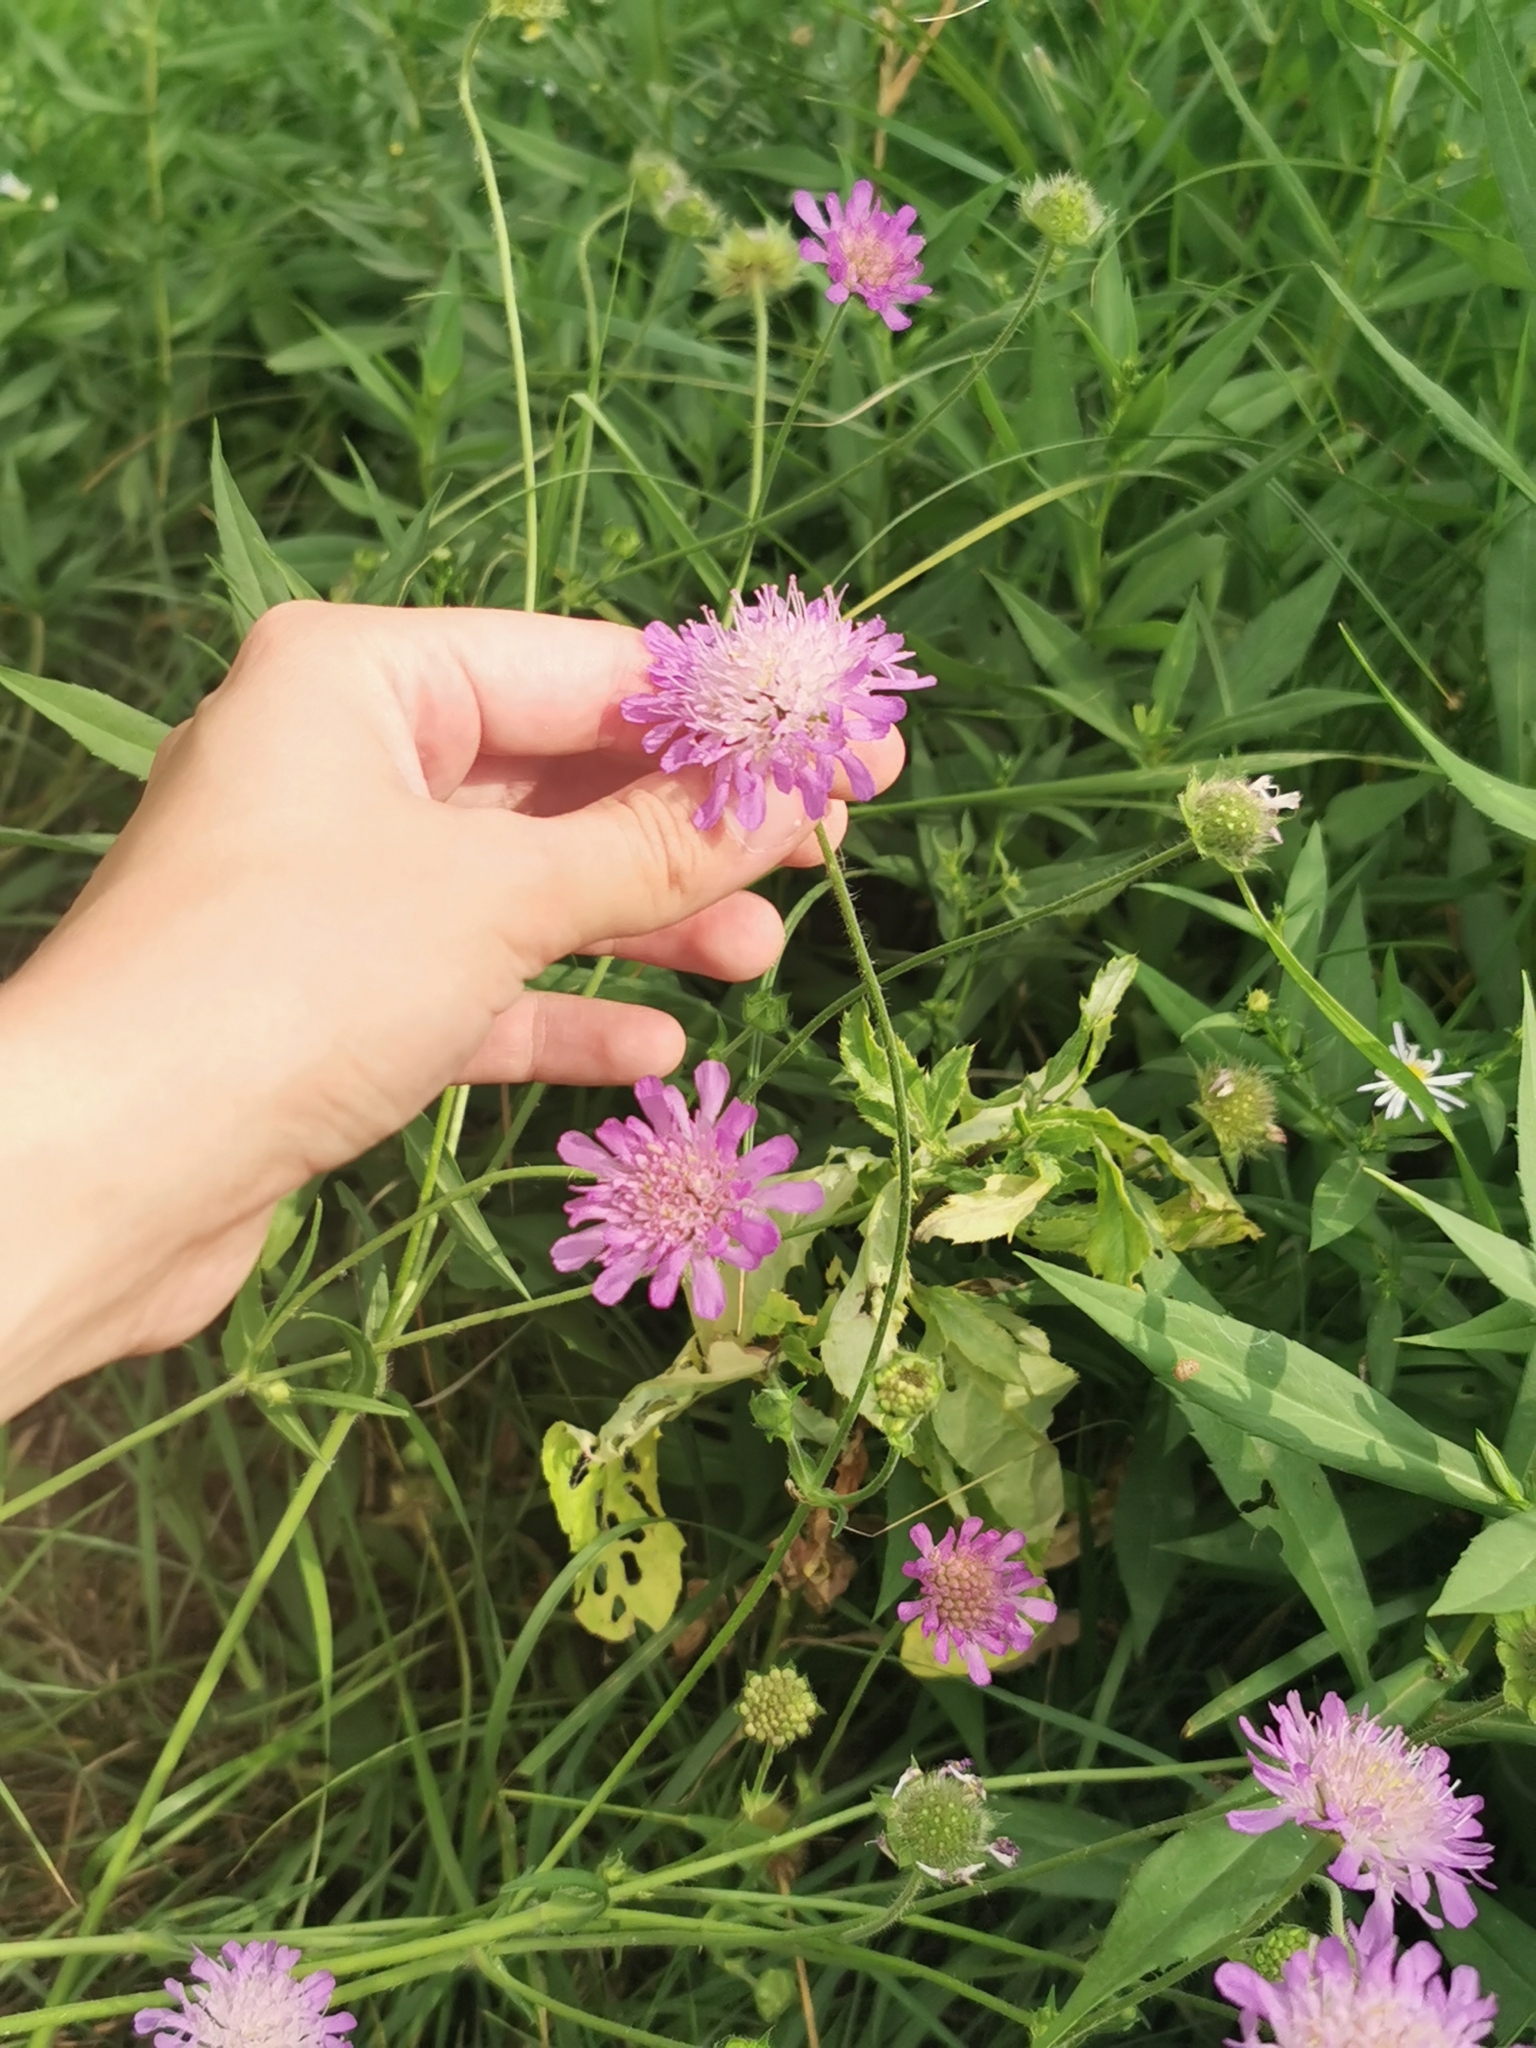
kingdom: Plantae
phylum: Tracheophyta
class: Magnoliopsida
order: Dipsacales
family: Caprifoliaceae
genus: Knautia
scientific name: Knautia arvensis
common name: Field scabiosa
